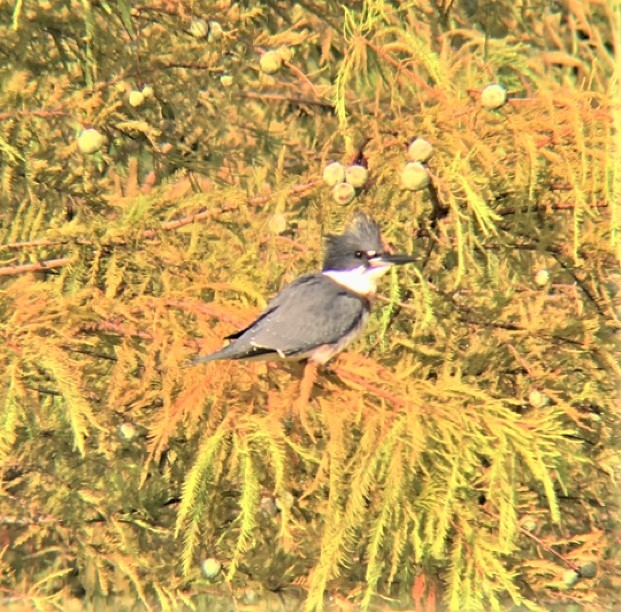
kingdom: Animalia
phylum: Chordata
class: Aves
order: Coraciiformes
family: Alcedinidae
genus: Megaceryle
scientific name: Megaceryle alcyon
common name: Belted kingfisher
